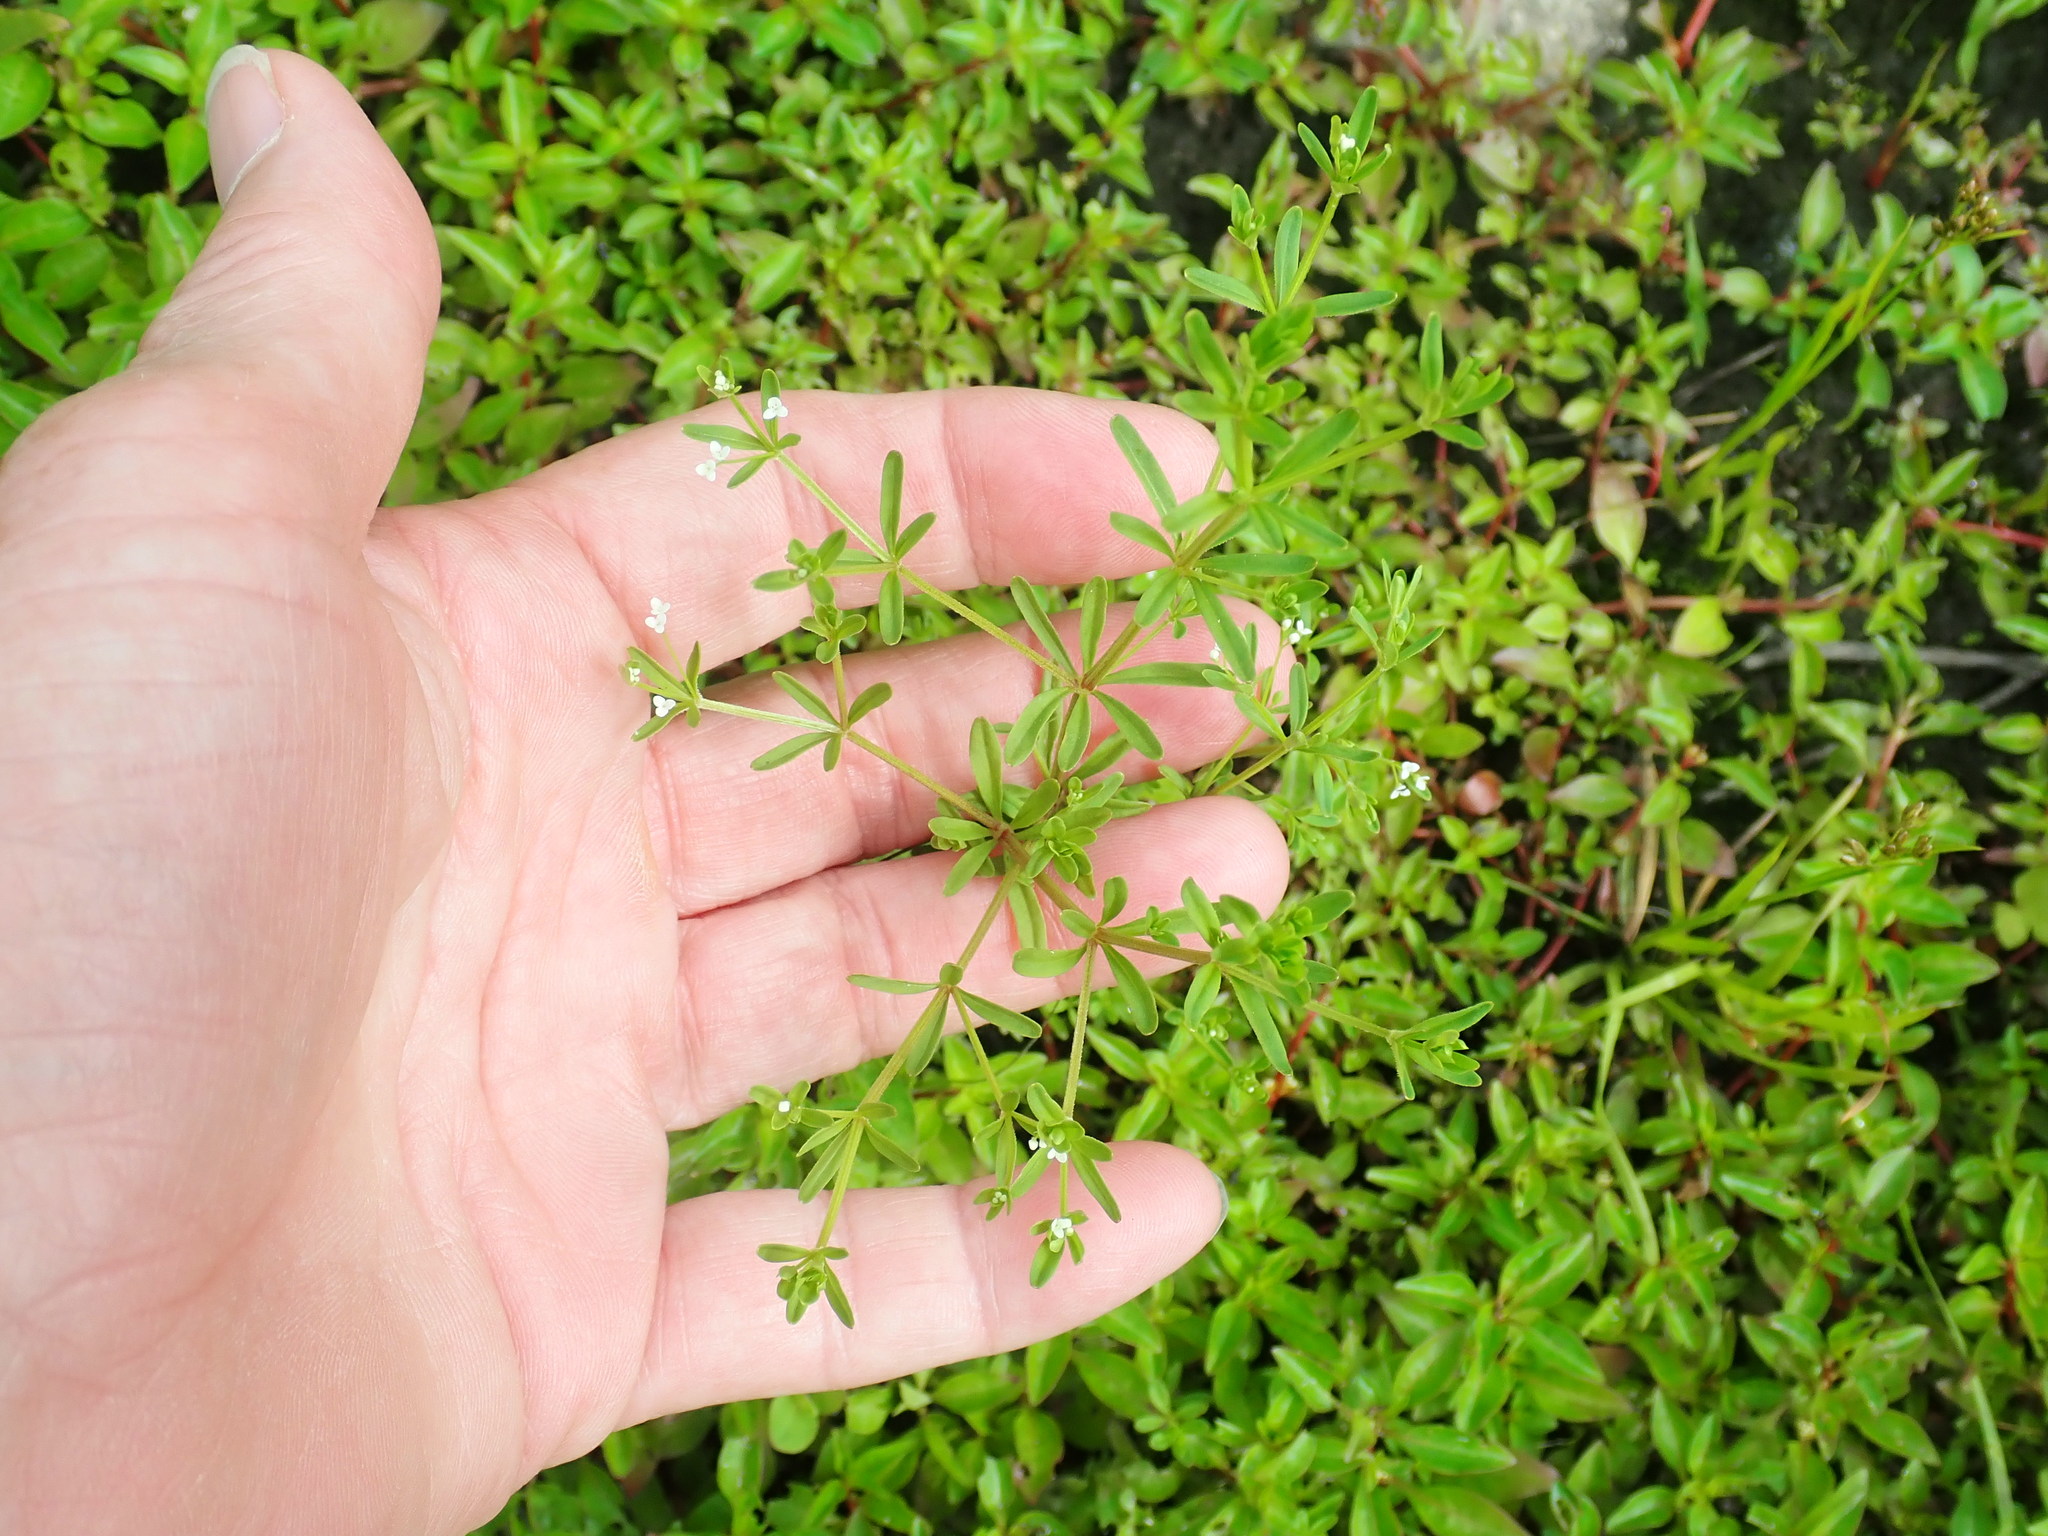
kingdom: Plantae
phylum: Tracheophyta
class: Magnoliopsida
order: Gentianales
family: Rubiaceae
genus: Galium
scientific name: Galium trifidum
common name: Small bedstraw
